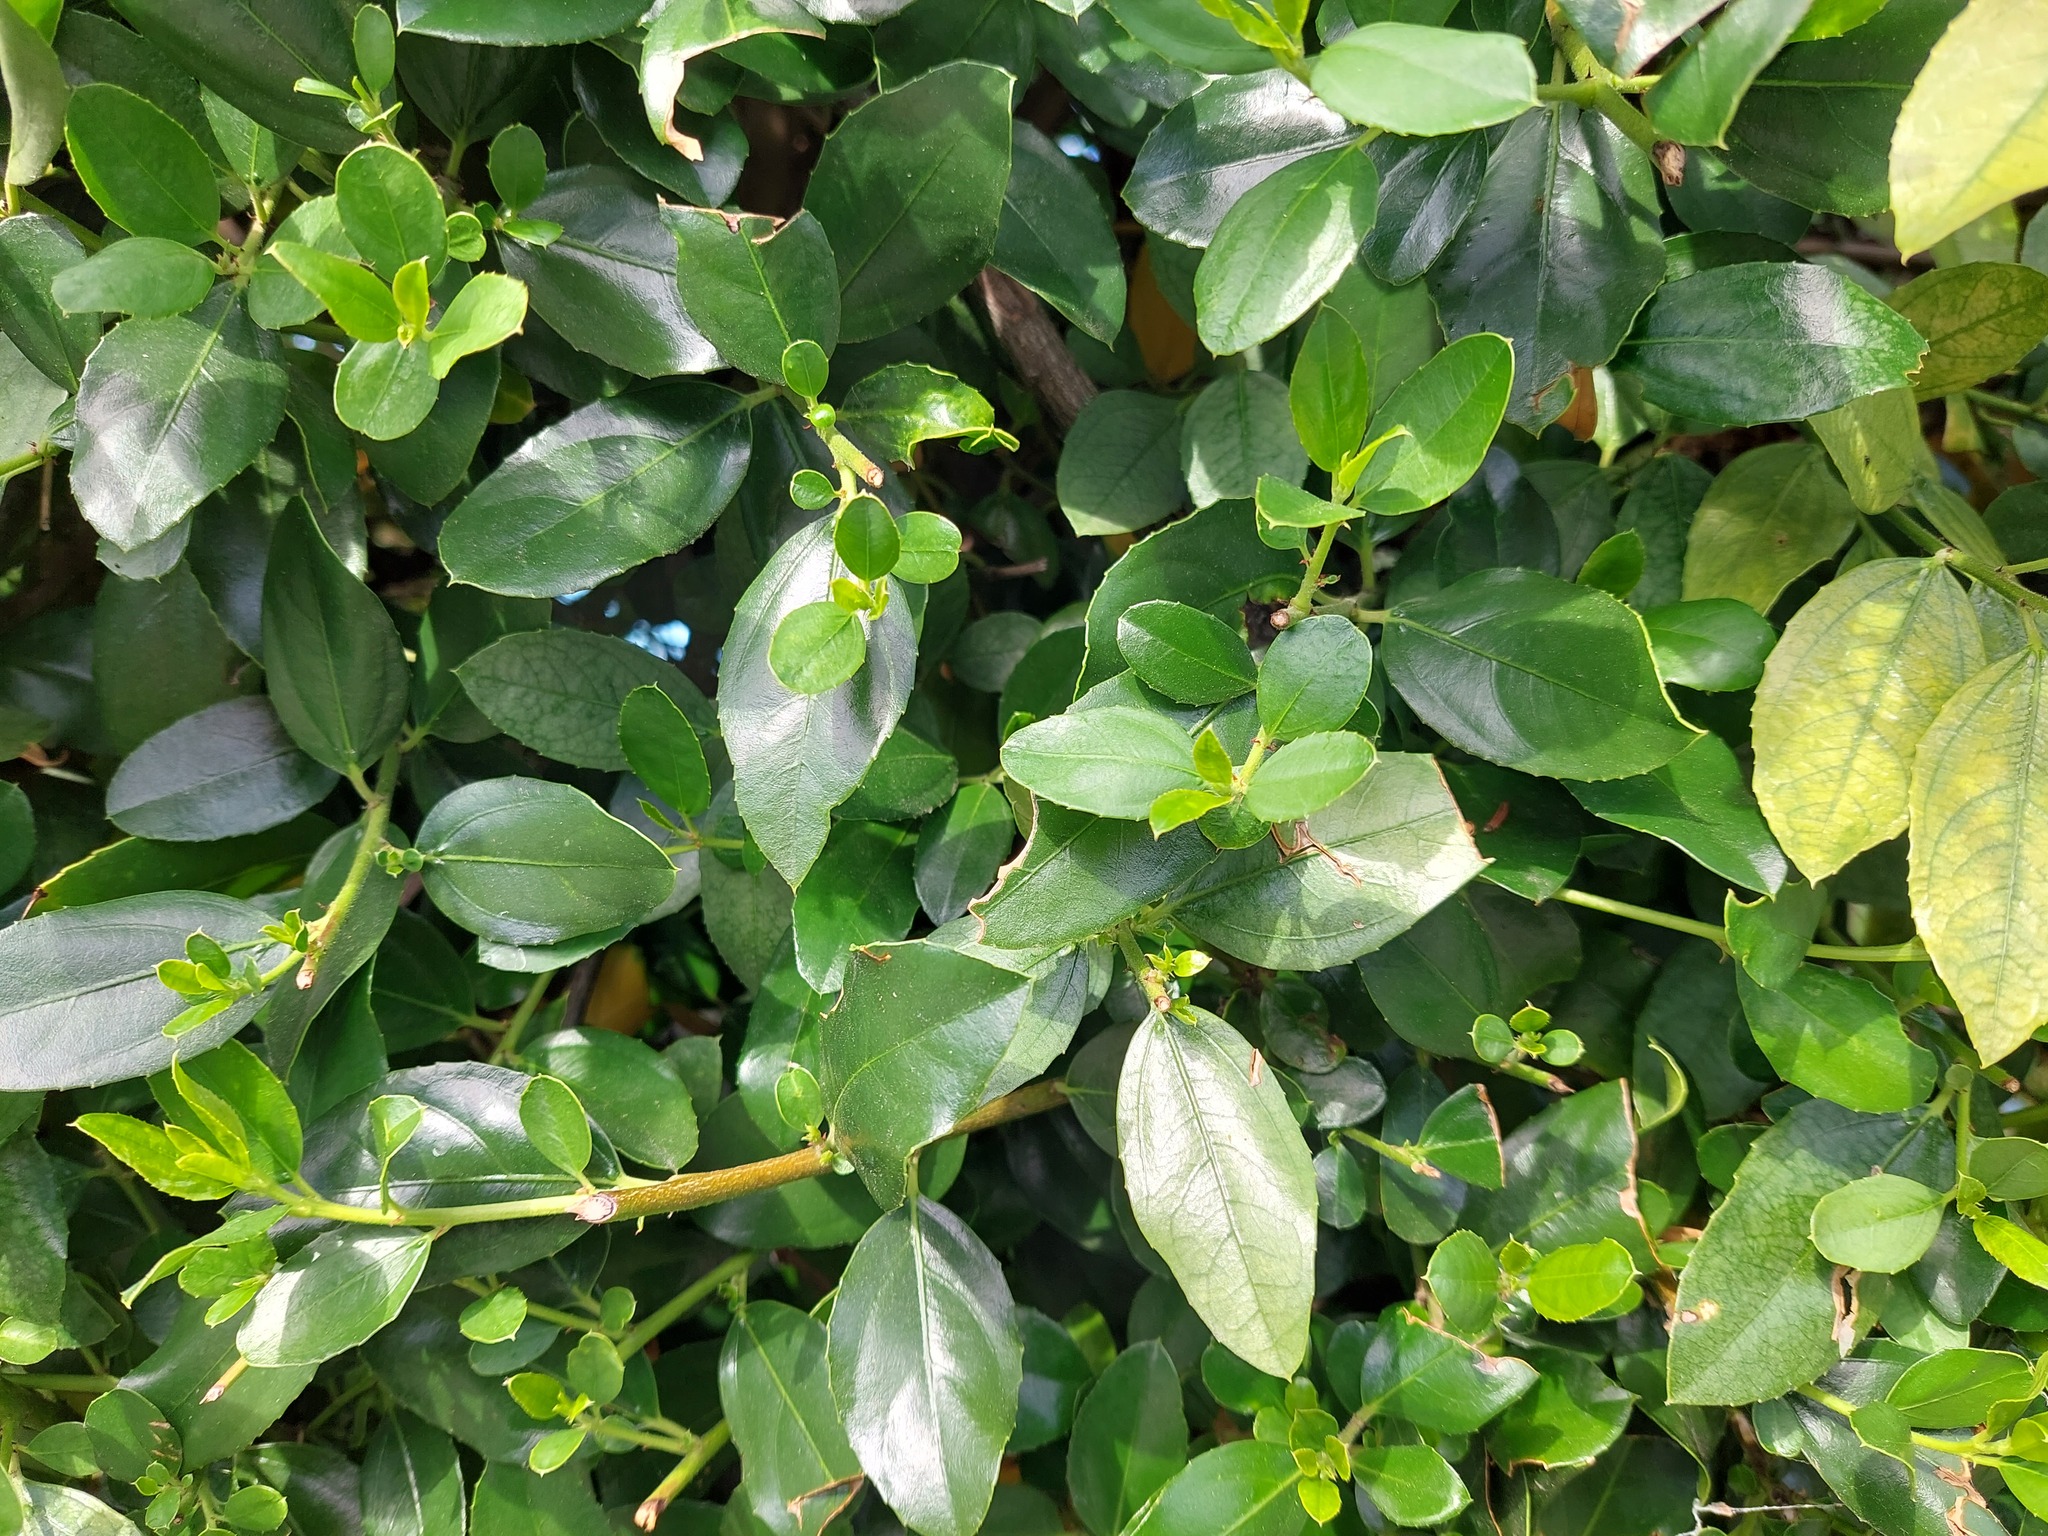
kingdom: Plantae
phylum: Tracheophyta
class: Magnoliopsida
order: Rosales
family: Rhamnaceae
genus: Rhamnus
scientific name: Rhamnus alaternus
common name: Mediterranean buckthorn
